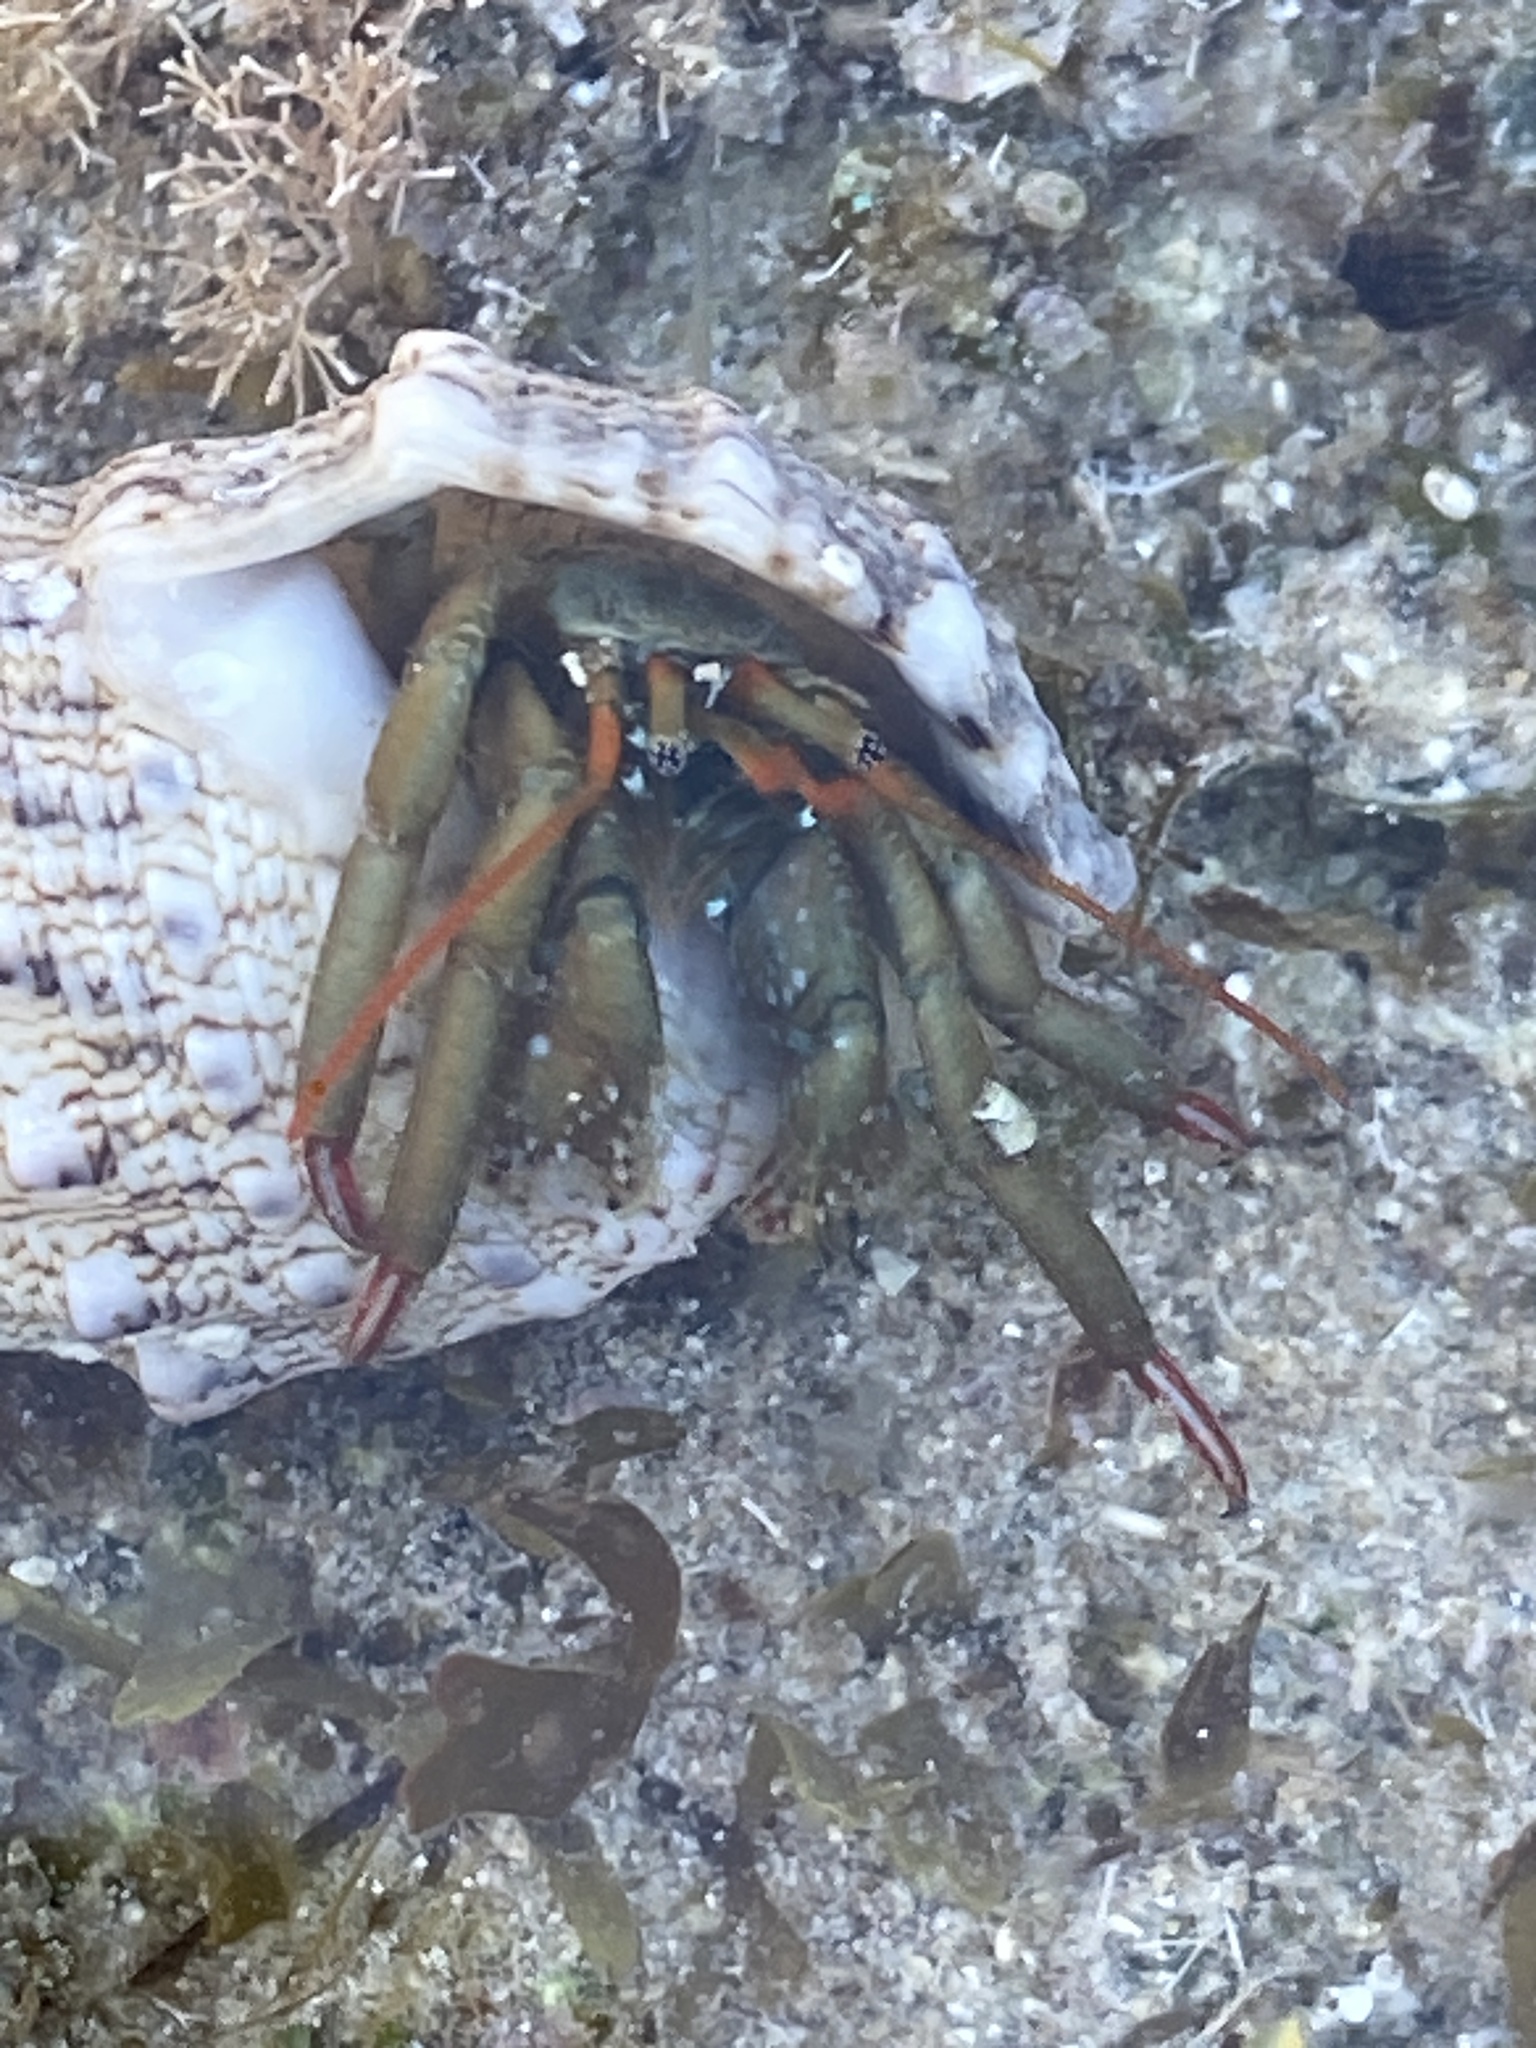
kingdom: Animalia
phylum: Arthropoda
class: Malacostraca
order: Decapoda
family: Diogenidae
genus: Clibanarius
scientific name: Clibanarius erythropus
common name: Hermit crab
